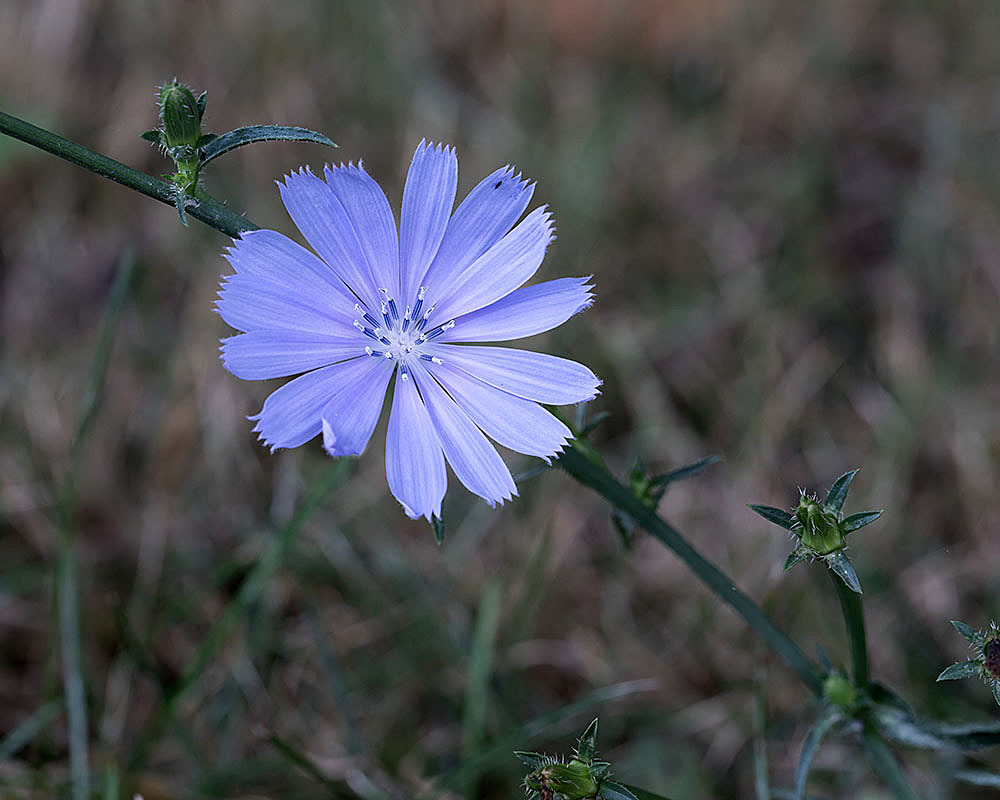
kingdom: Plantae
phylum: Tracheophyta
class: Magnoliopsida
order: Asterales
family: Asteraceae
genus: Cichorium
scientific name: Cichorium intybus
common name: Chicory
